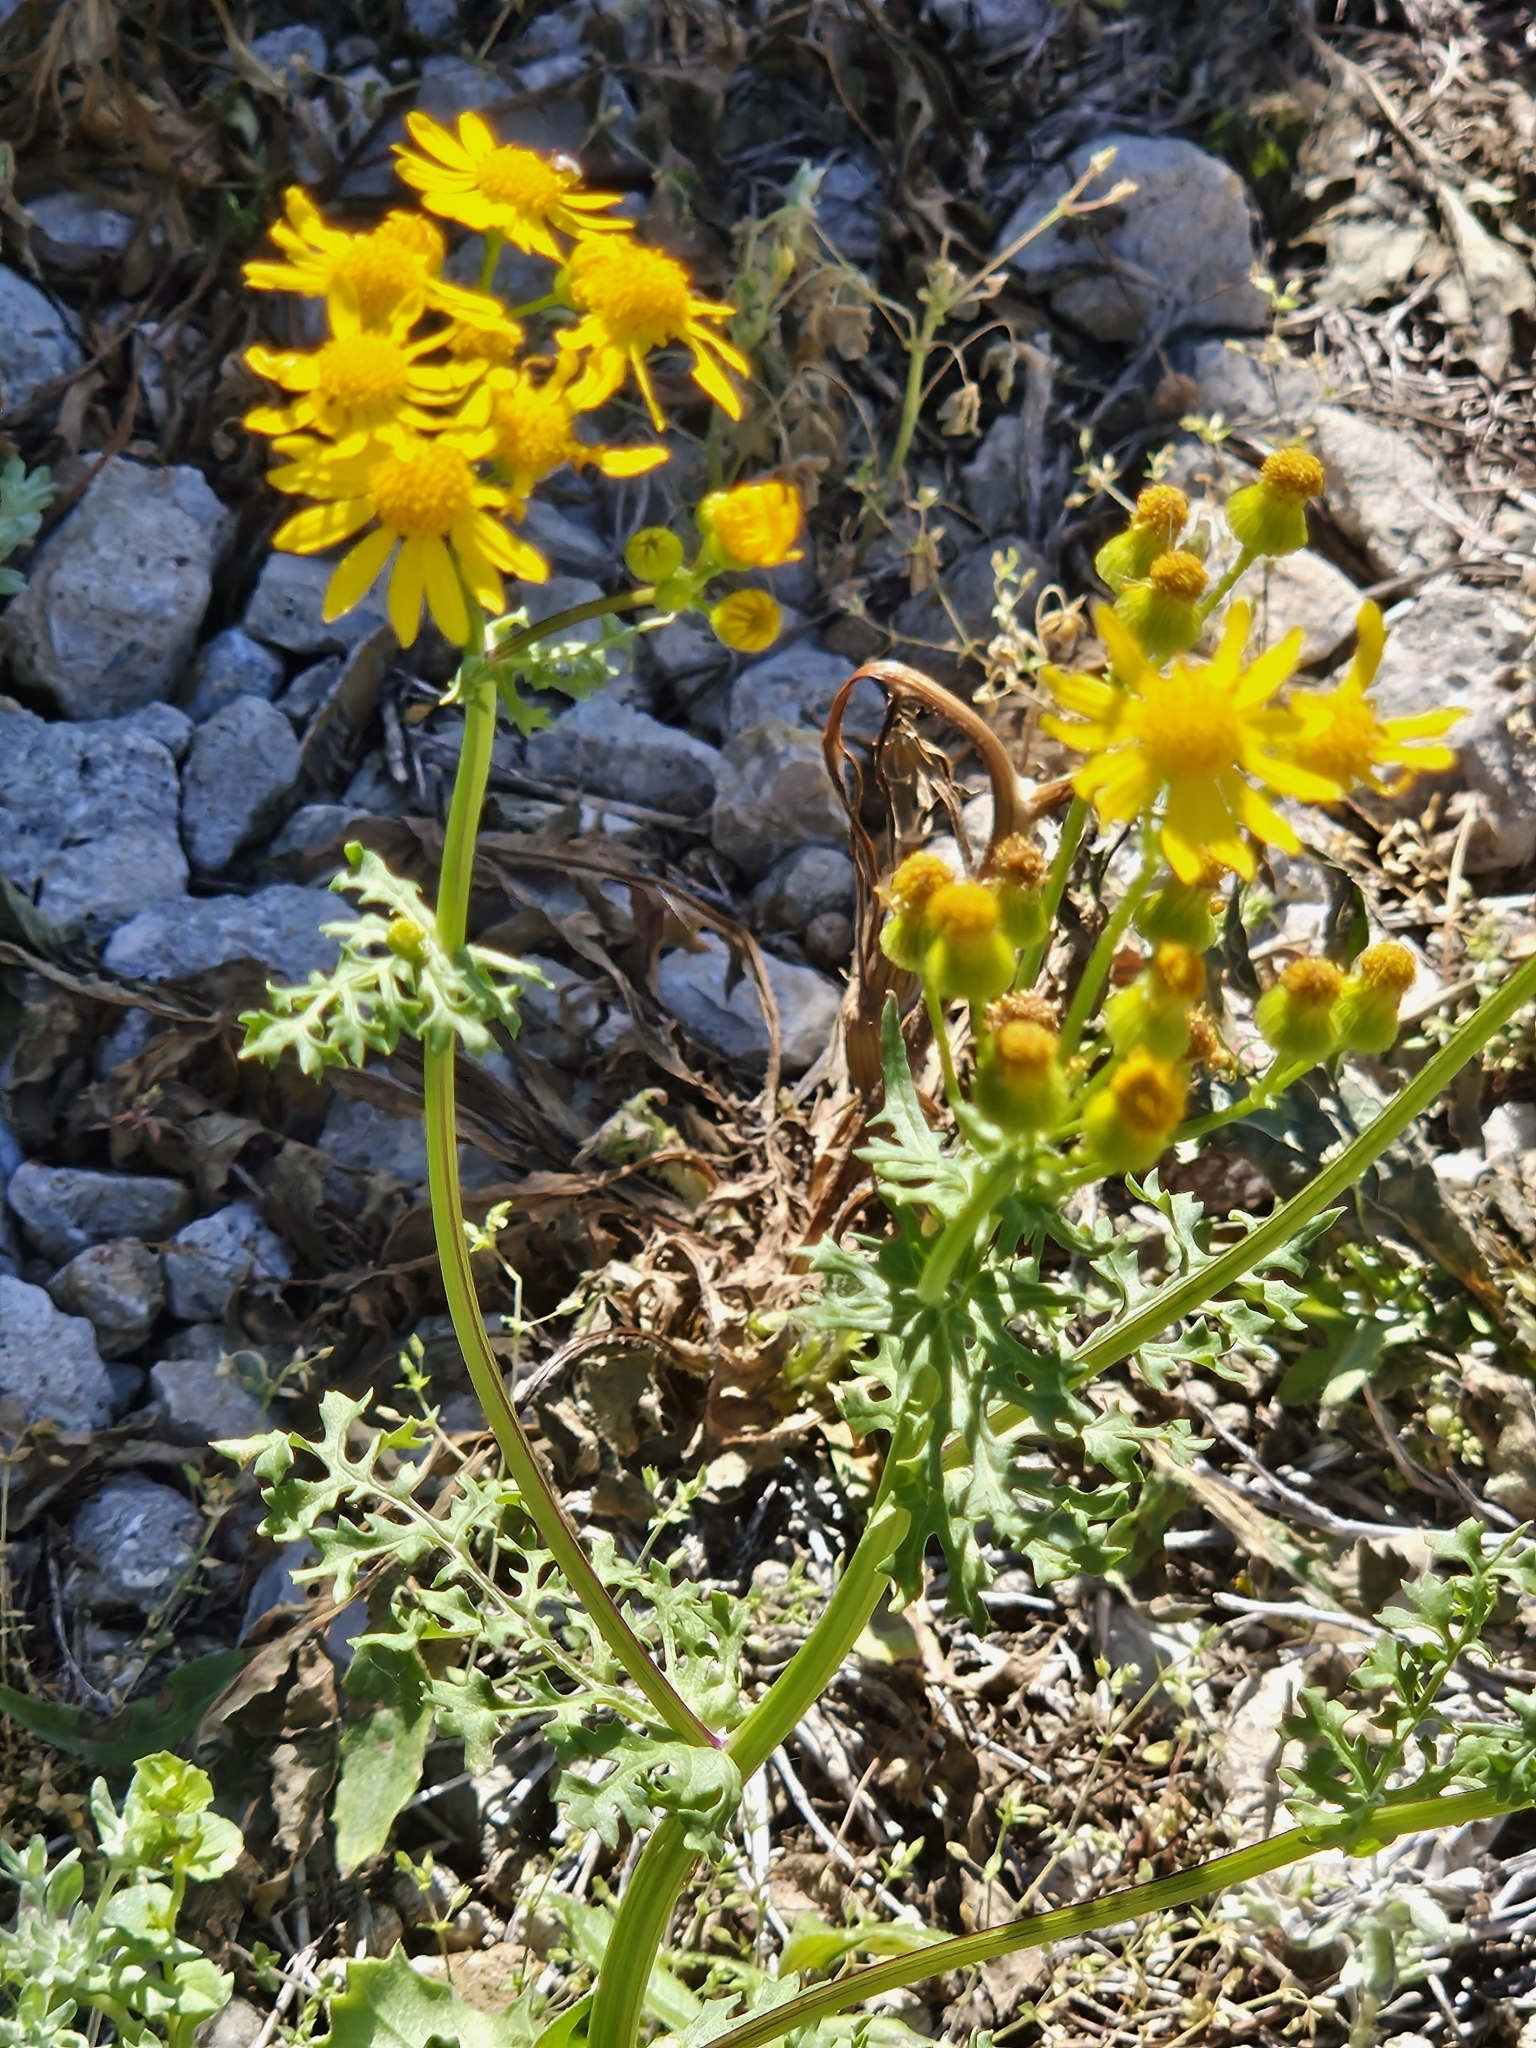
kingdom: Plantae
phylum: Tracheophyta
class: Magnoliopsida
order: Asterales
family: Asteraceae
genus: Packera
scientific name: Packera tampicana
